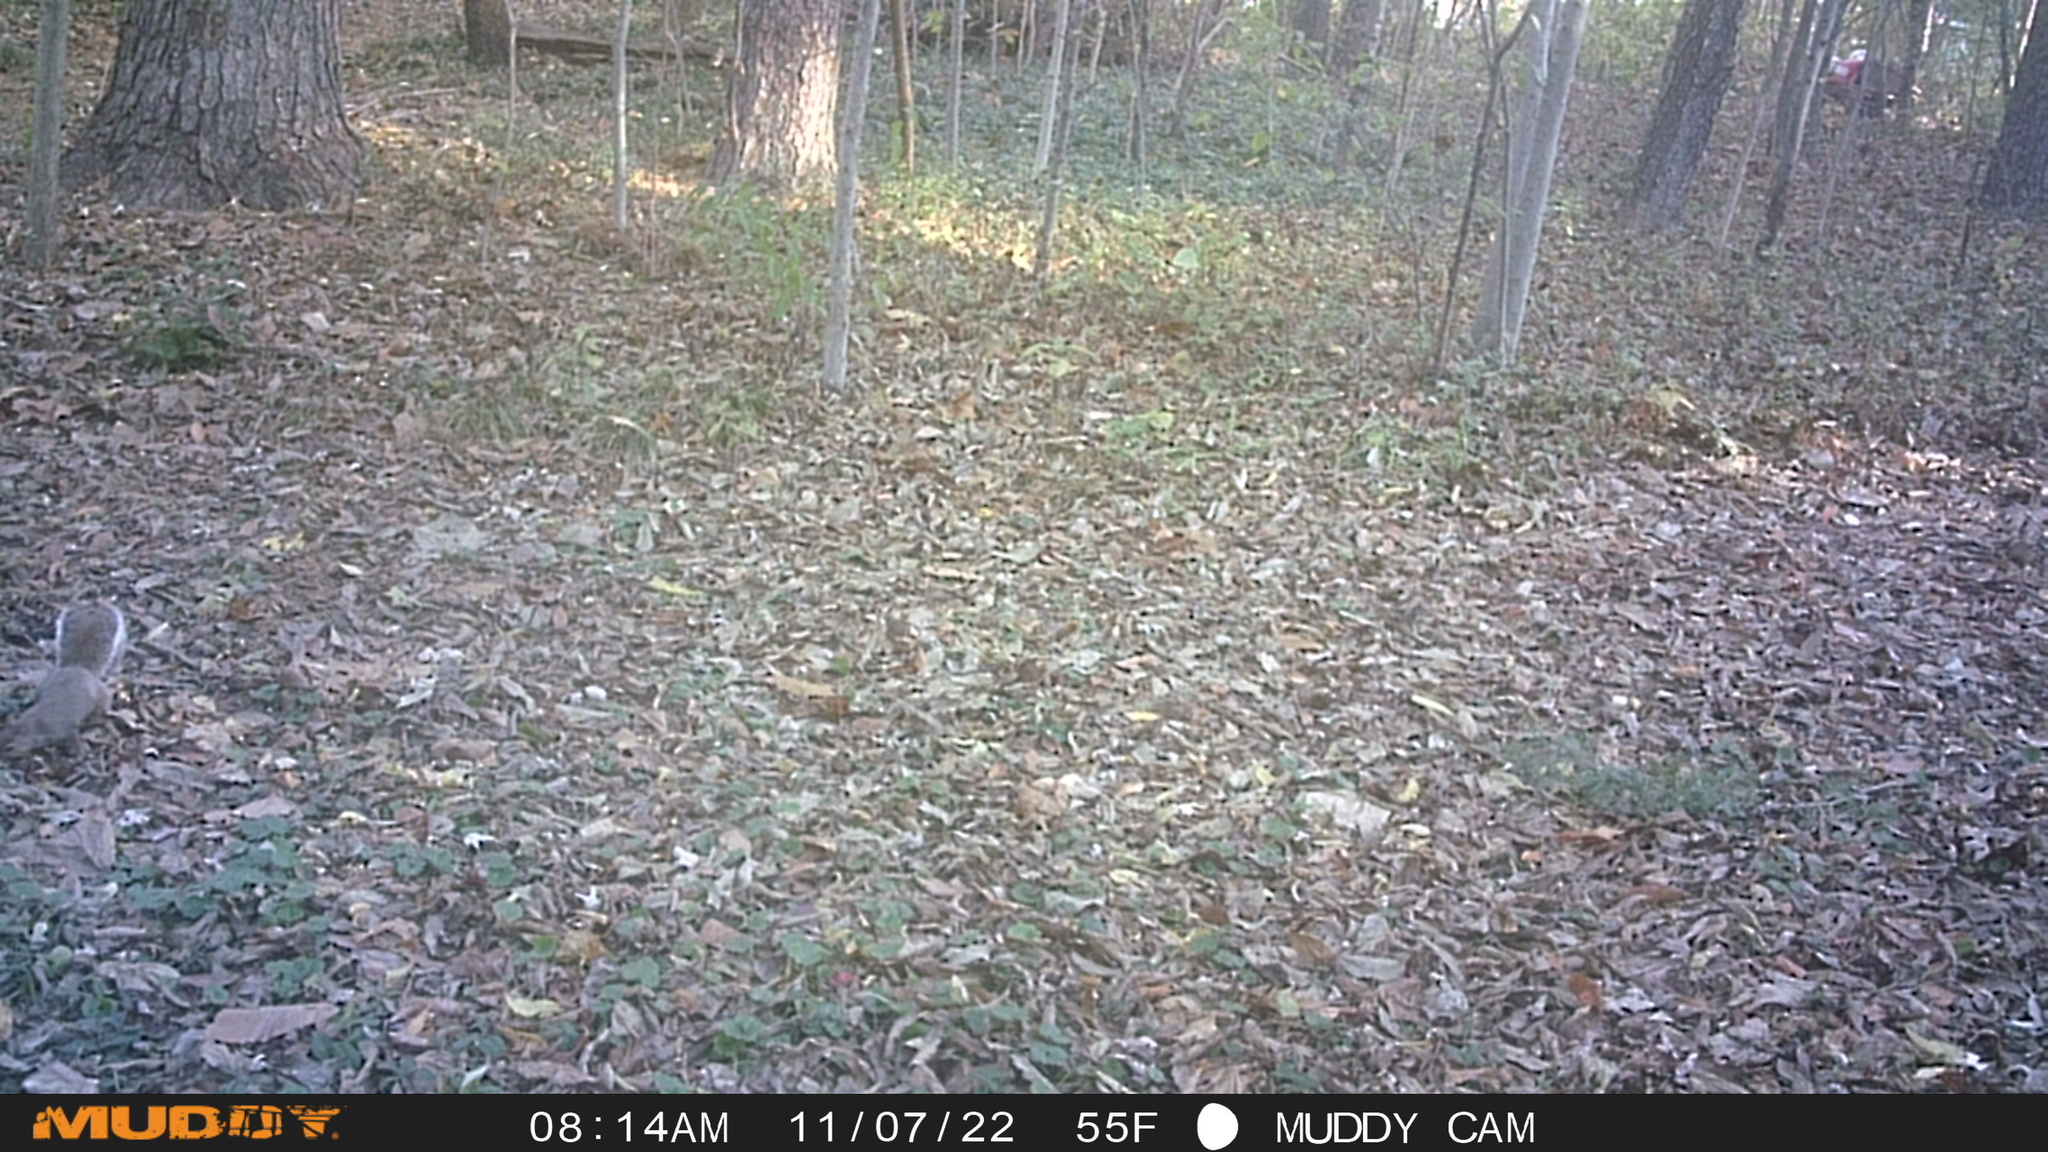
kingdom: Animalia
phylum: Chordata
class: Mammalia
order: Rodentia
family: Sciuridae
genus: Sciurus
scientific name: Sciurus carolinensis
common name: Eastern gray squirrel
